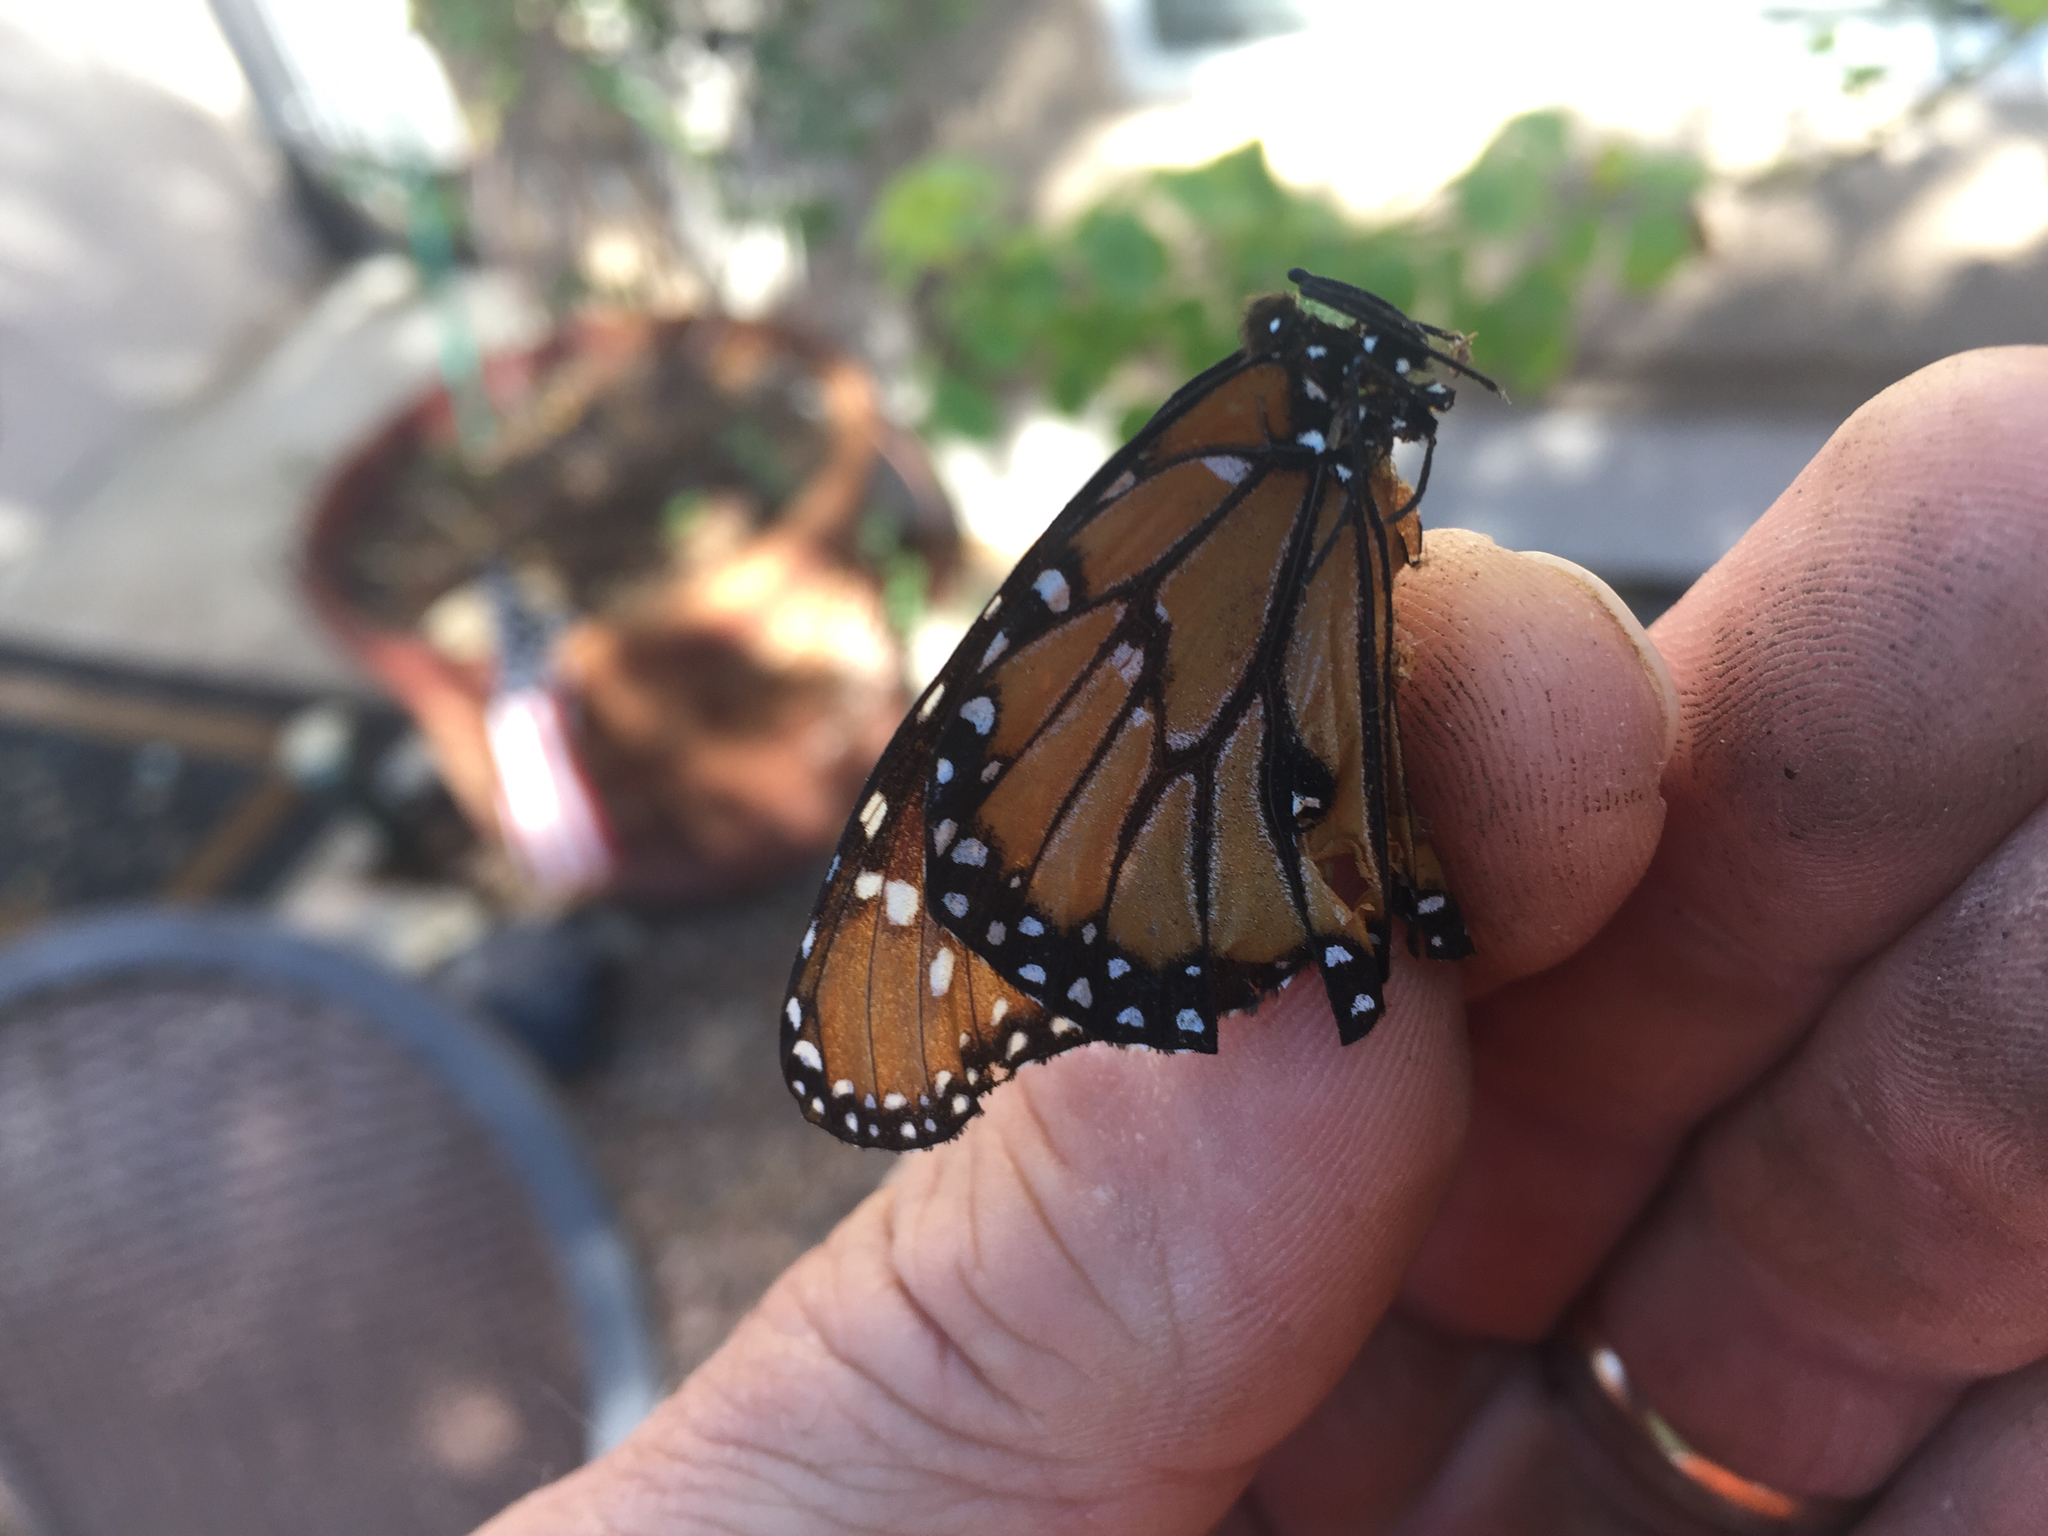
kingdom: Animalia
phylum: Arthropoda
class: Insecta
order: Lepidoptera
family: Nymphalidae
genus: Danaus
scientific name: Danaus gilippus
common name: Queen
